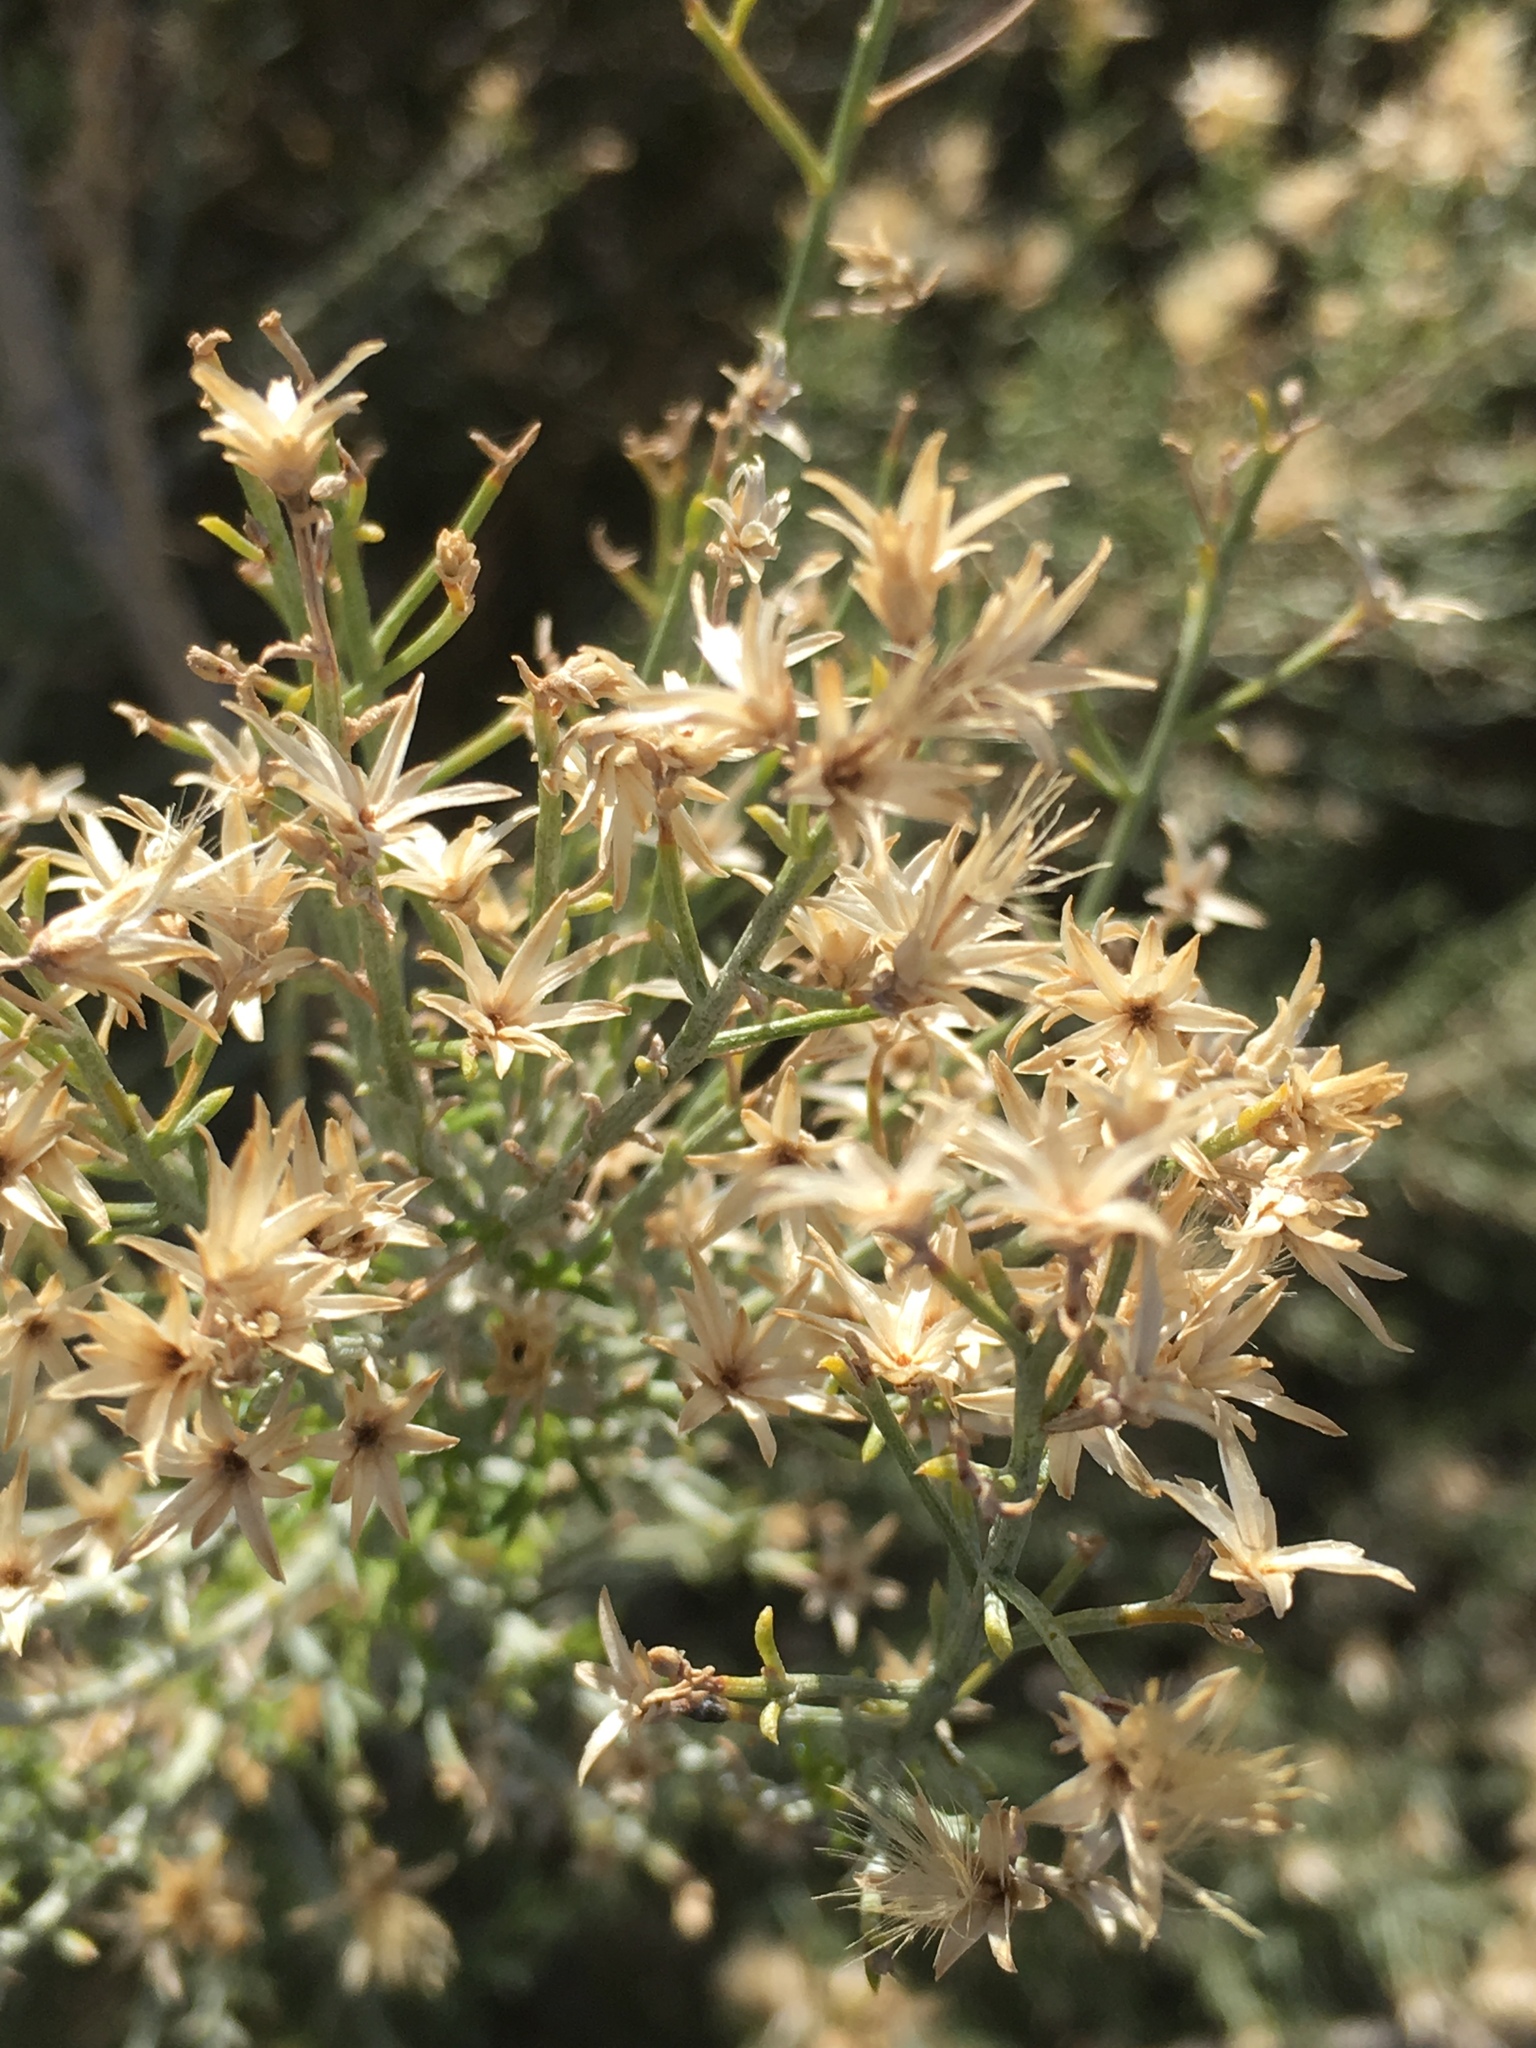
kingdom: Plantae
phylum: Tracheophyta
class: Magnoliopsida
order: Asterales
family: Asteraceae
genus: Ericameria
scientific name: Ericameria paniculata
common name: Punctate rabbitbrush
